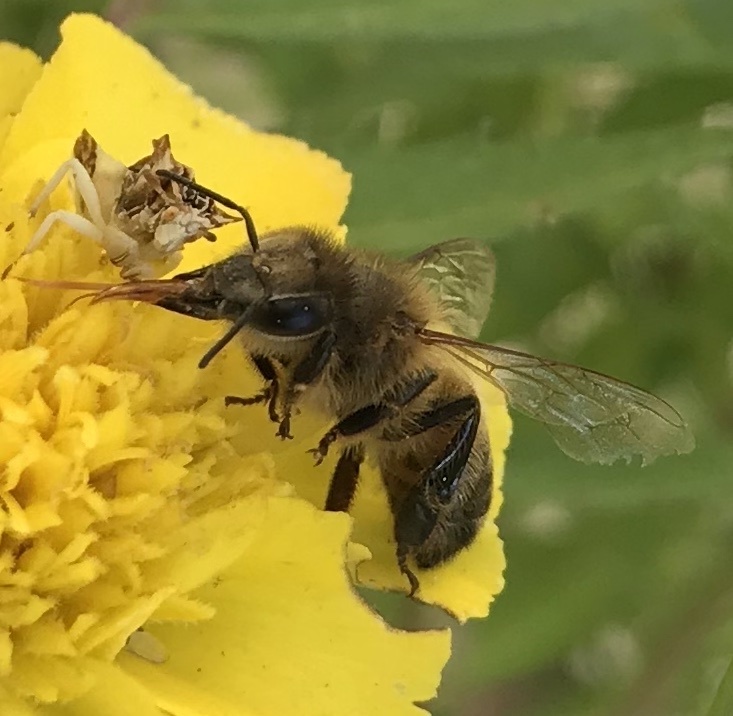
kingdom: Animalia
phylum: Arthropoda
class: Insecta
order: Hymenoptera
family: Apidae
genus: Apis
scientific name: Apis mellifera
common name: Honey bee
